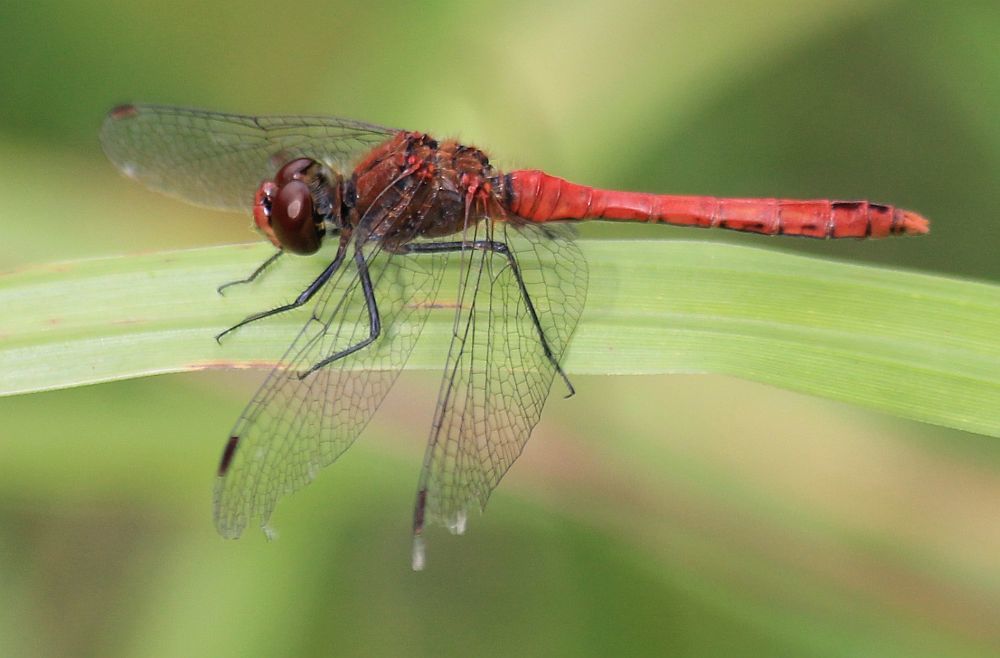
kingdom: Animalia
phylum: Arthropoda
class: Insecta
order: Odonata
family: Libellulidae
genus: Sympetrum
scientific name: Sympetrum sanguineum
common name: Ruddy darter
